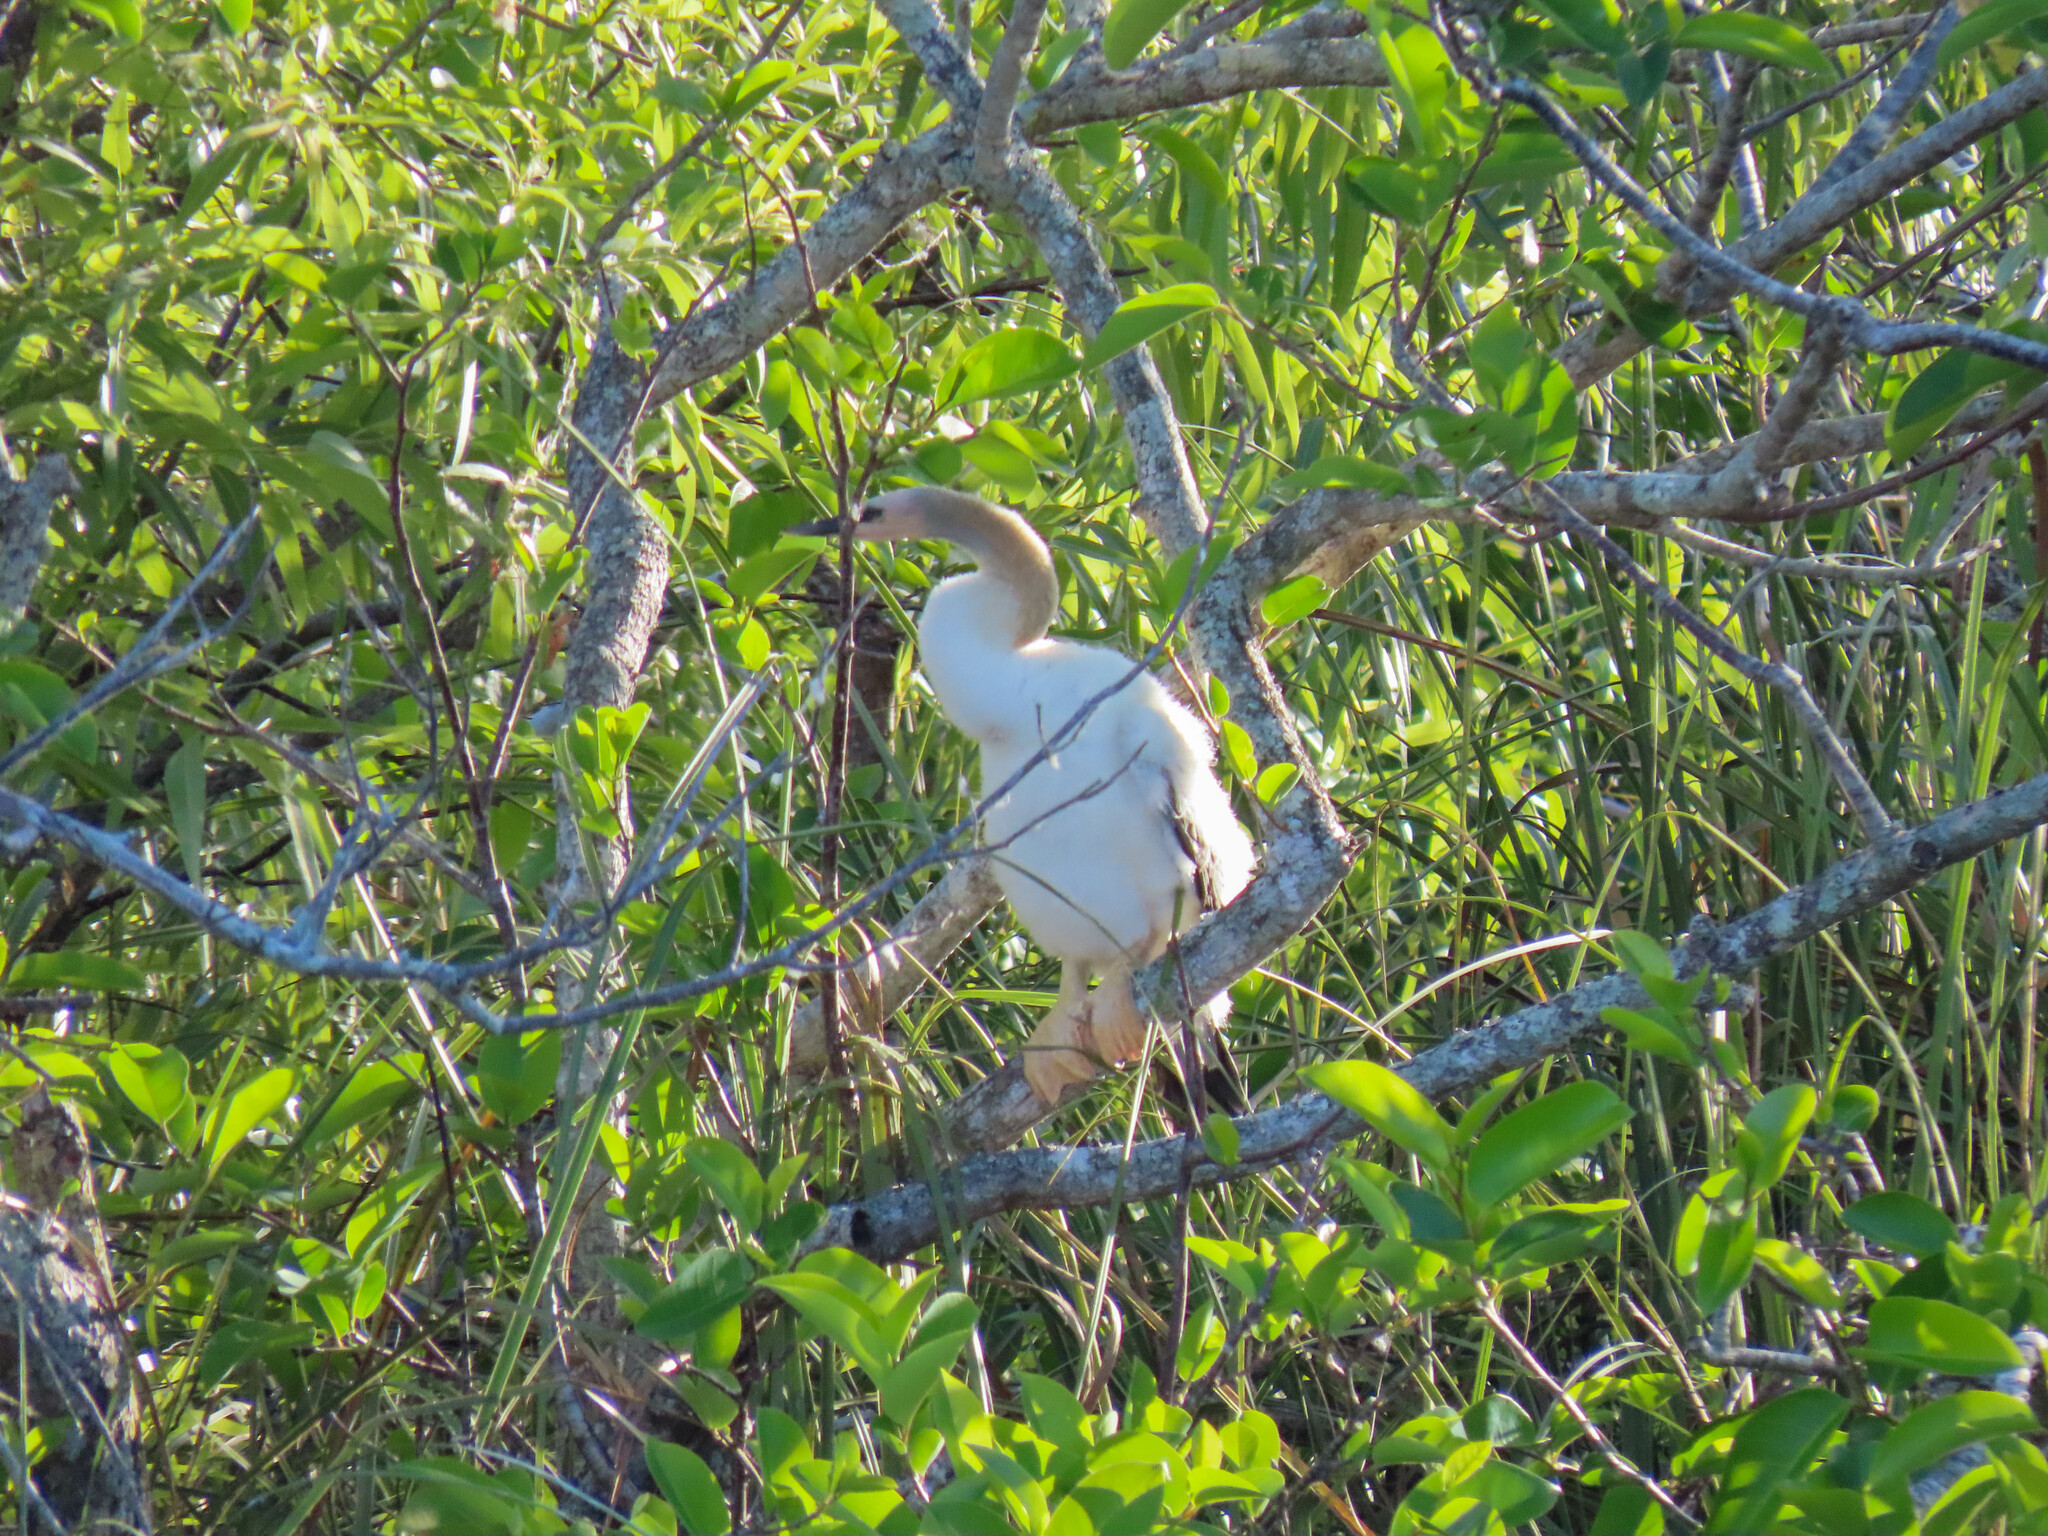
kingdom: Animalia
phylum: Chordata
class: Aves
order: Suliformes
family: Anhingidae
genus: Anhinga
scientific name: Anhinga anhinga
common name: Anhinga
